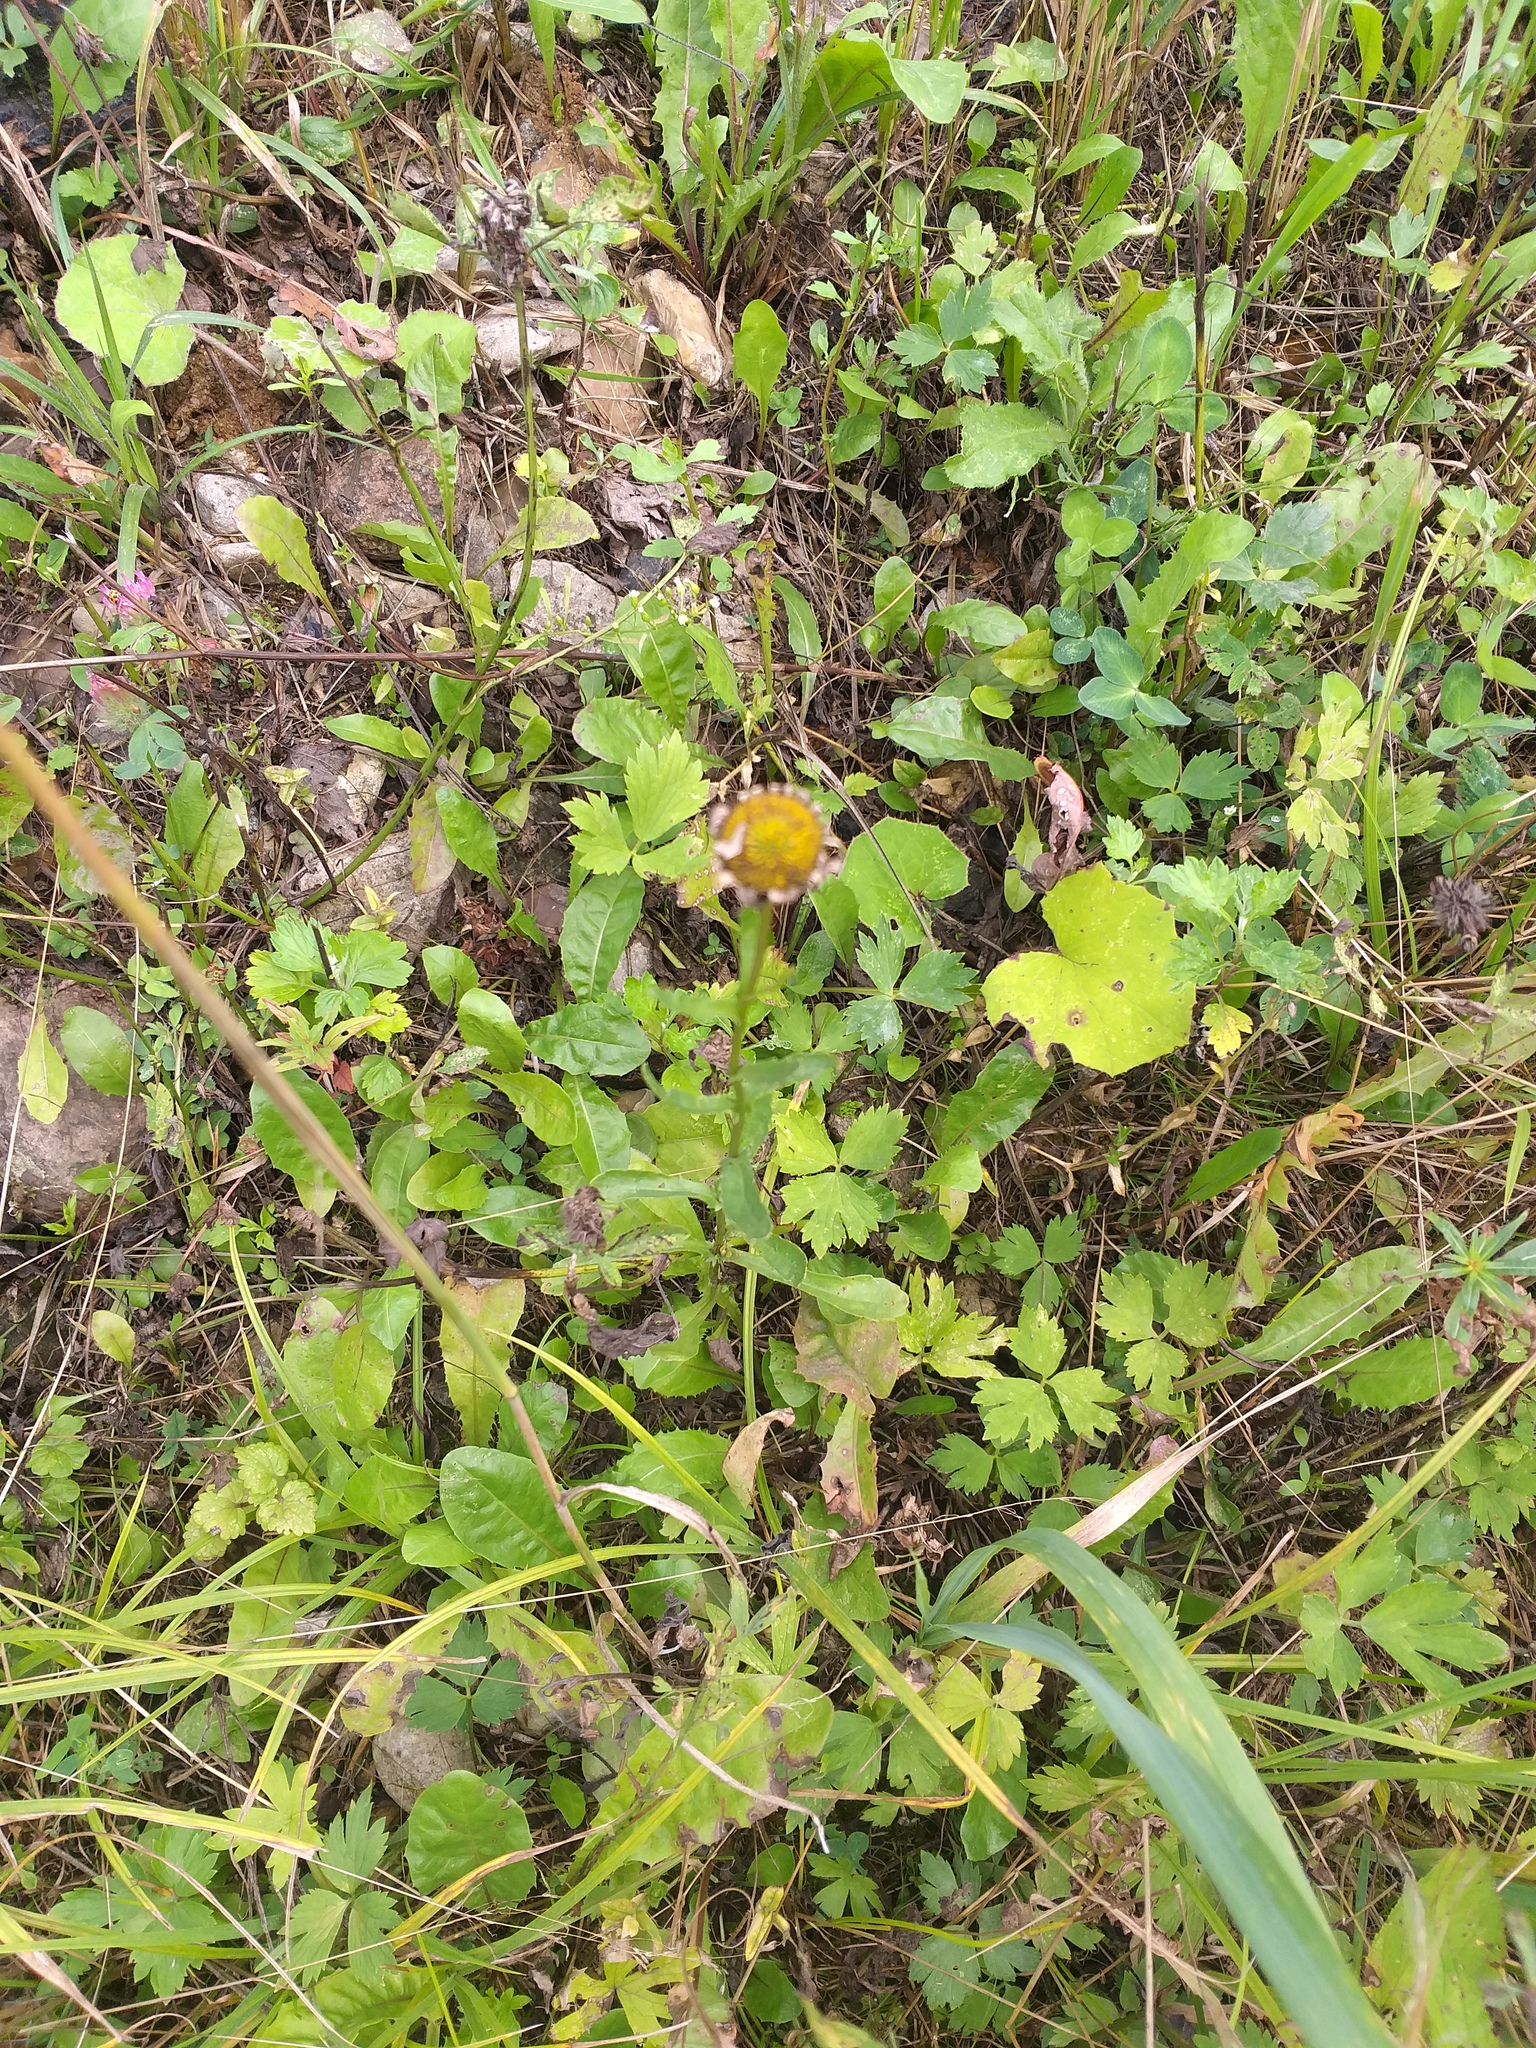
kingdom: Plantae
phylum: Tracheophyta
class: Magnoliopsida
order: Asterales
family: Asteraceae
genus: Leucanthemum
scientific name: Leucanthemum vulgare
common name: Oxeye daisy
